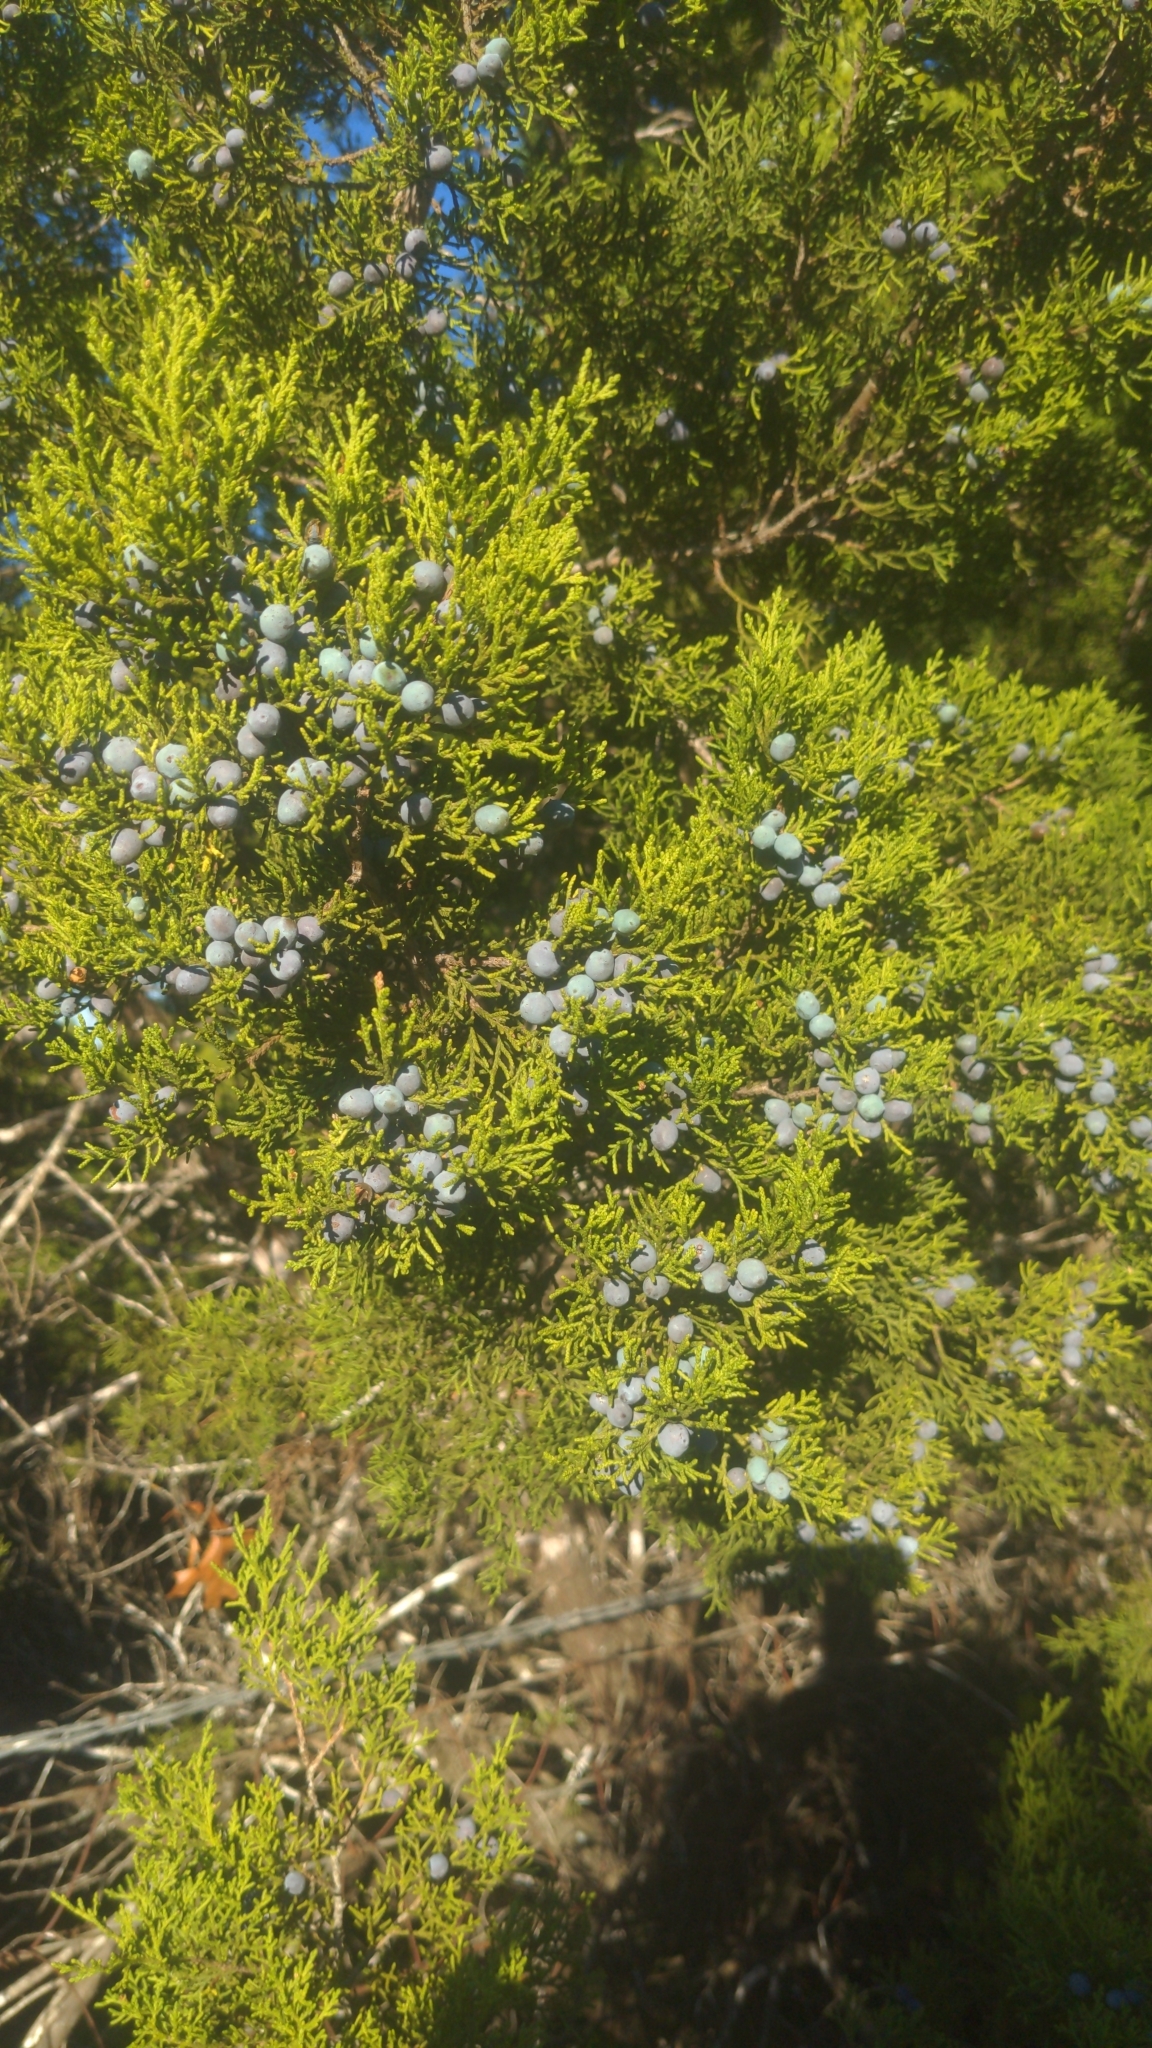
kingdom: Plantae
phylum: Tracheophyta
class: Pinopsida
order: Pinales
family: Cupressaceae
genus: Juniperus
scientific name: Juniperus ashei
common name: Mexican juniper
